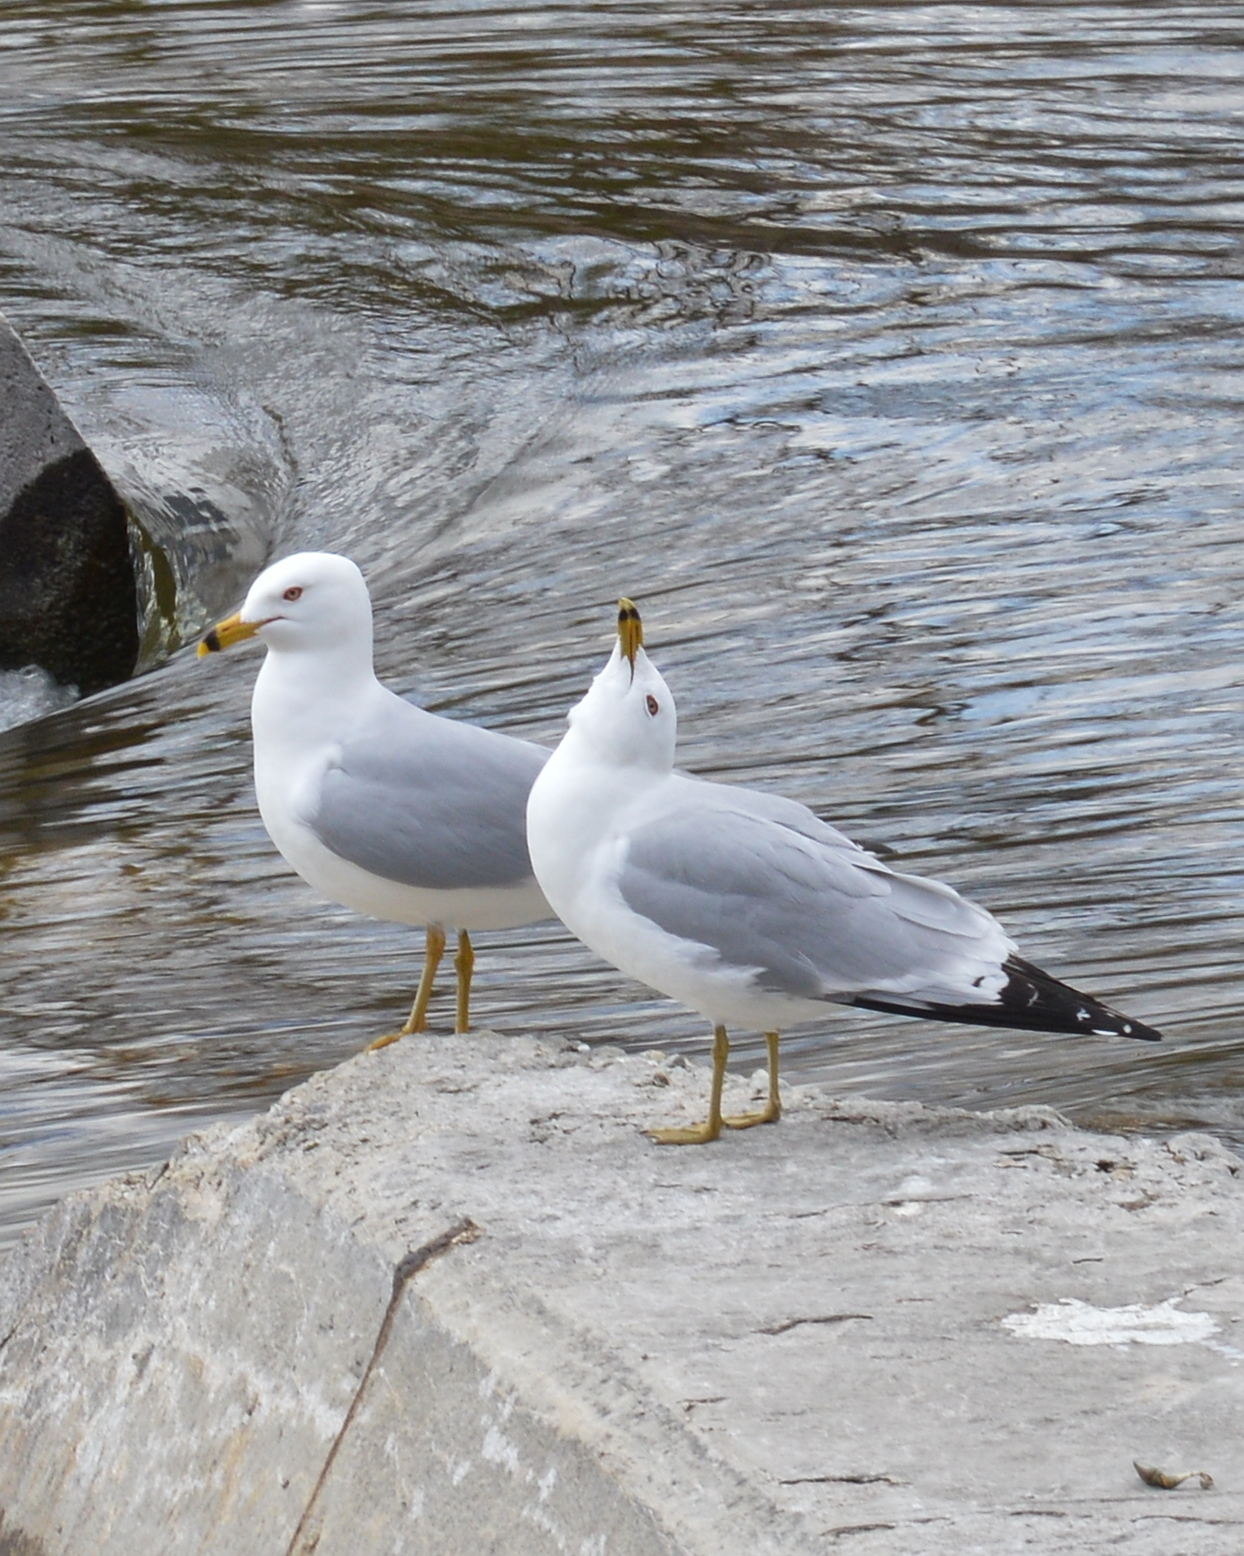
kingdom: Animalia
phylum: Chordata
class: Aves
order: Charadriiformes
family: Laridae
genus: Larus
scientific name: Larus delawarensis
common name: Ring-billed gull
